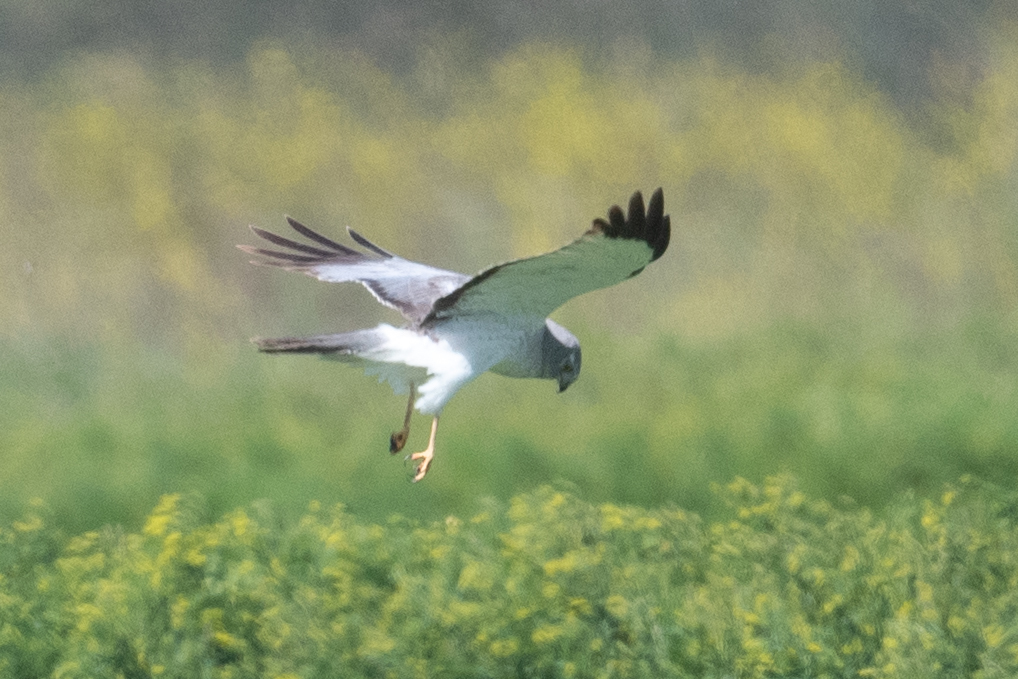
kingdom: Animalia
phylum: Chordata
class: Aves
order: Accipitriformes
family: Accipitridae
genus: Circus
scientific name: Circus cyaneus
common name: Hen harrier
